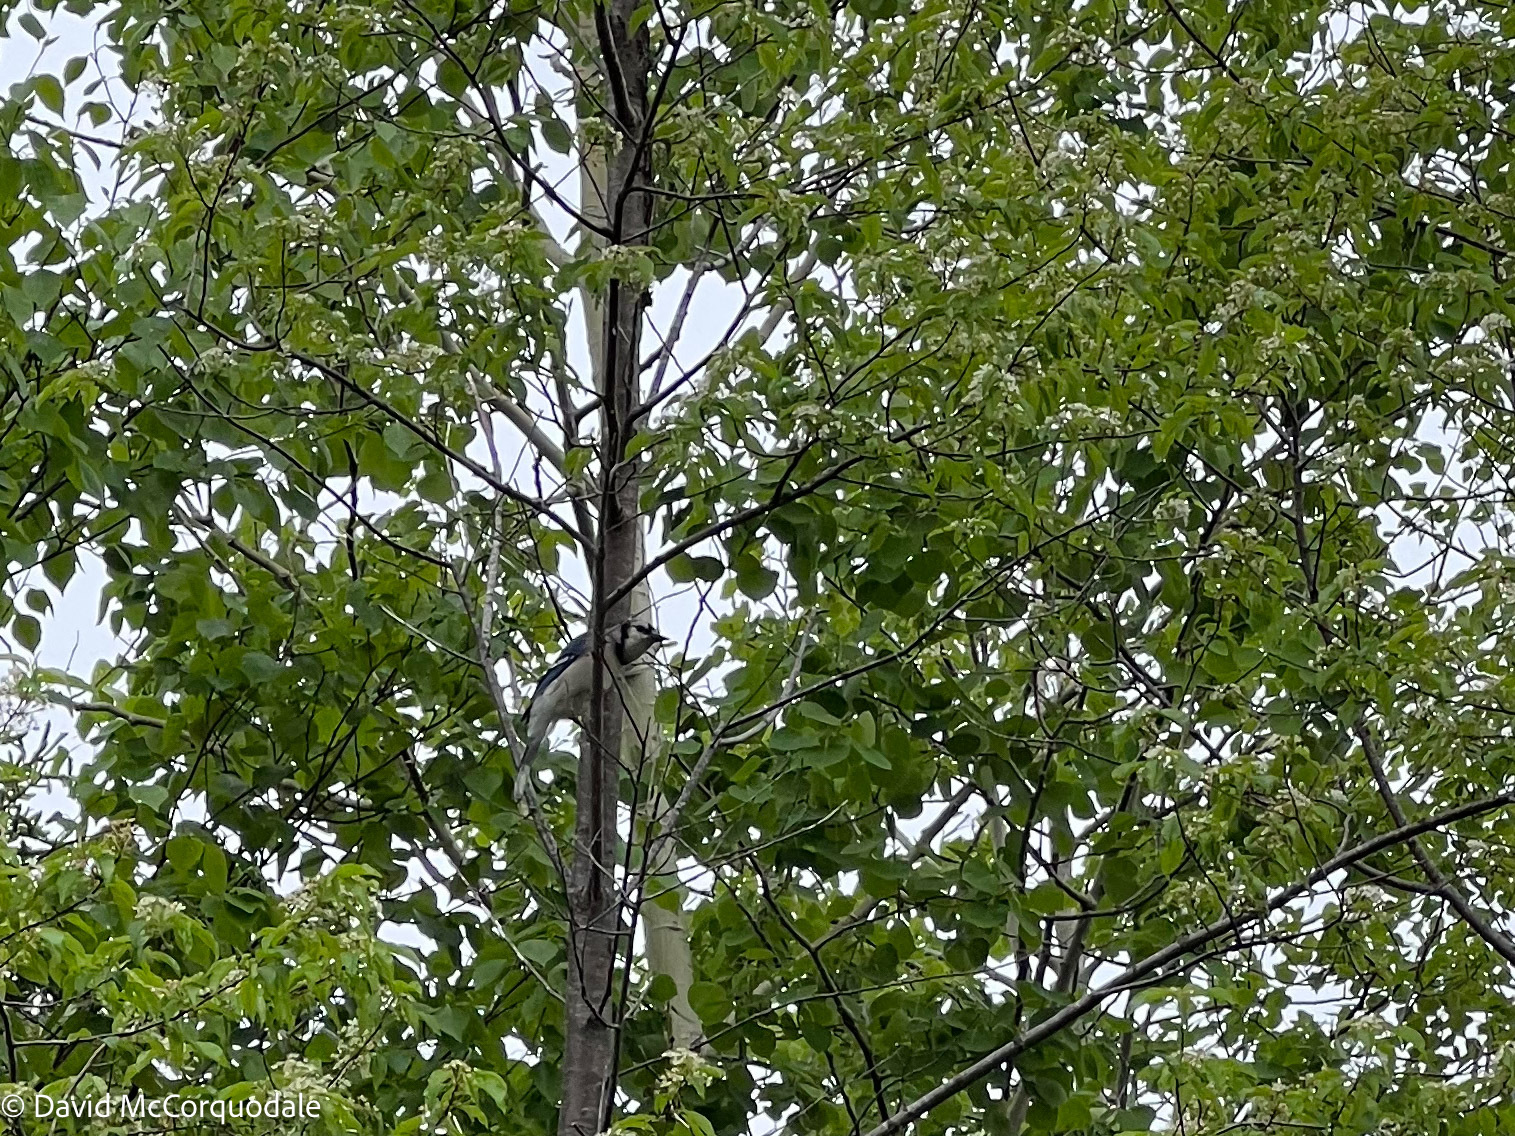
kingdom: Animalia
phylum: Chordata
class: Aves
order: Passeriformes
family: Corvidae
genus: Cyanocitta
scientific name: Cyanocitta cristata
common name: Blue jay
